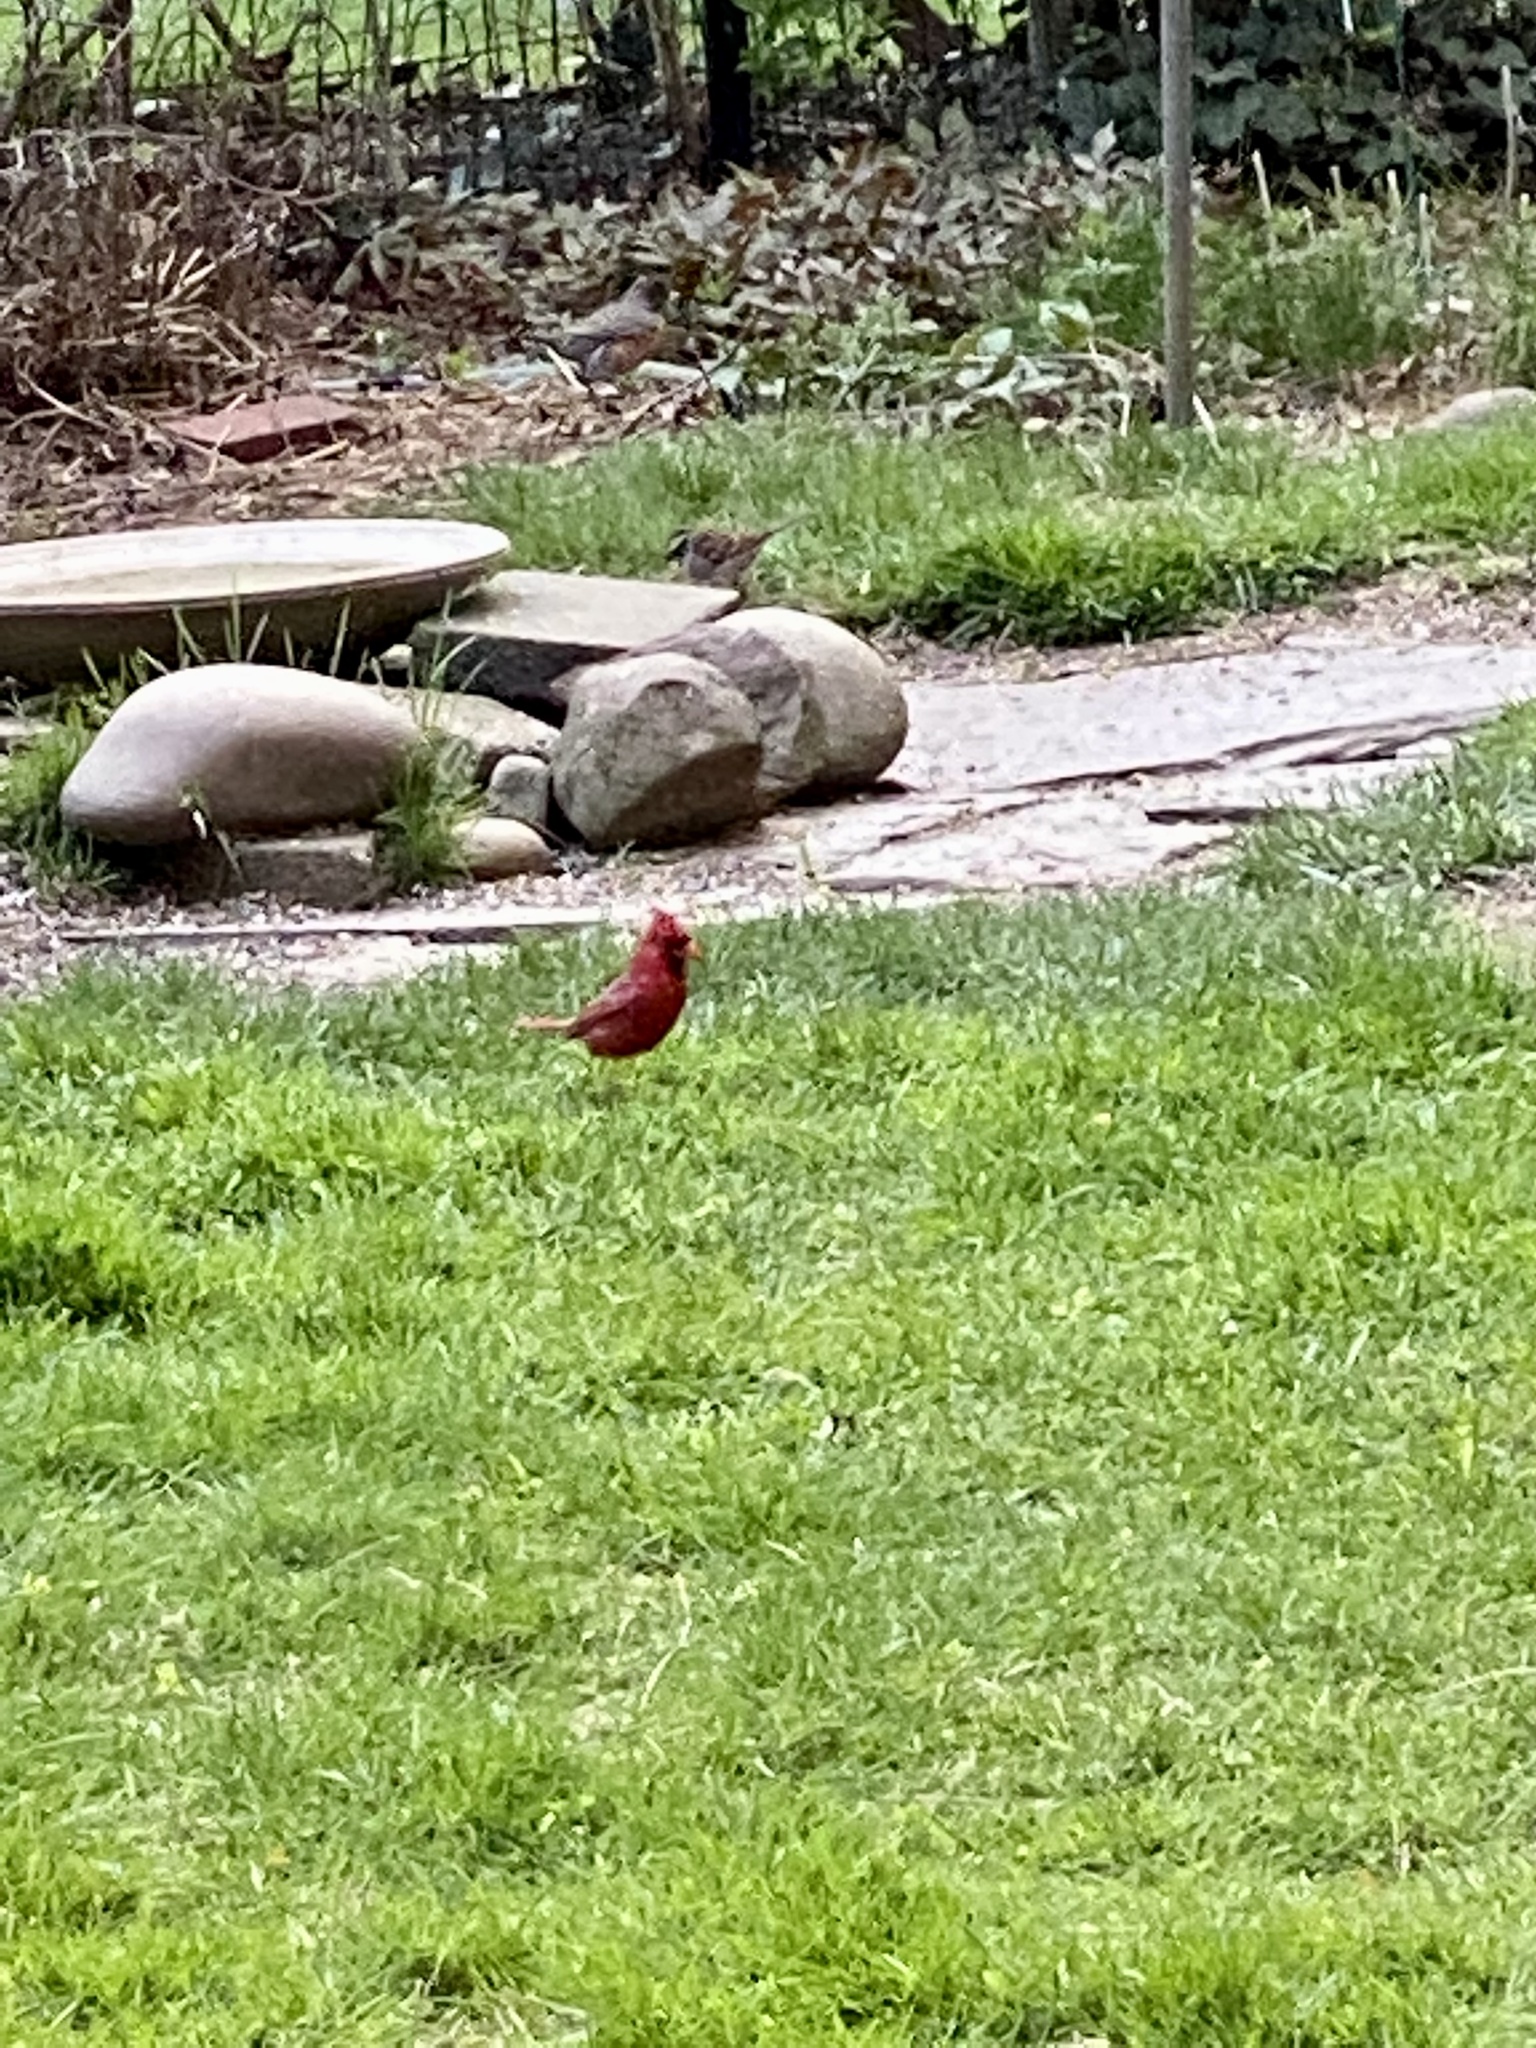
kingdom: Animalia
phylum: Chordata
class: Aves
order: Passeriformes
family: Cardinalidae
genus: Cardinalis
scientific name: Cardinalis cardinalis
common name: Northern cardinal
